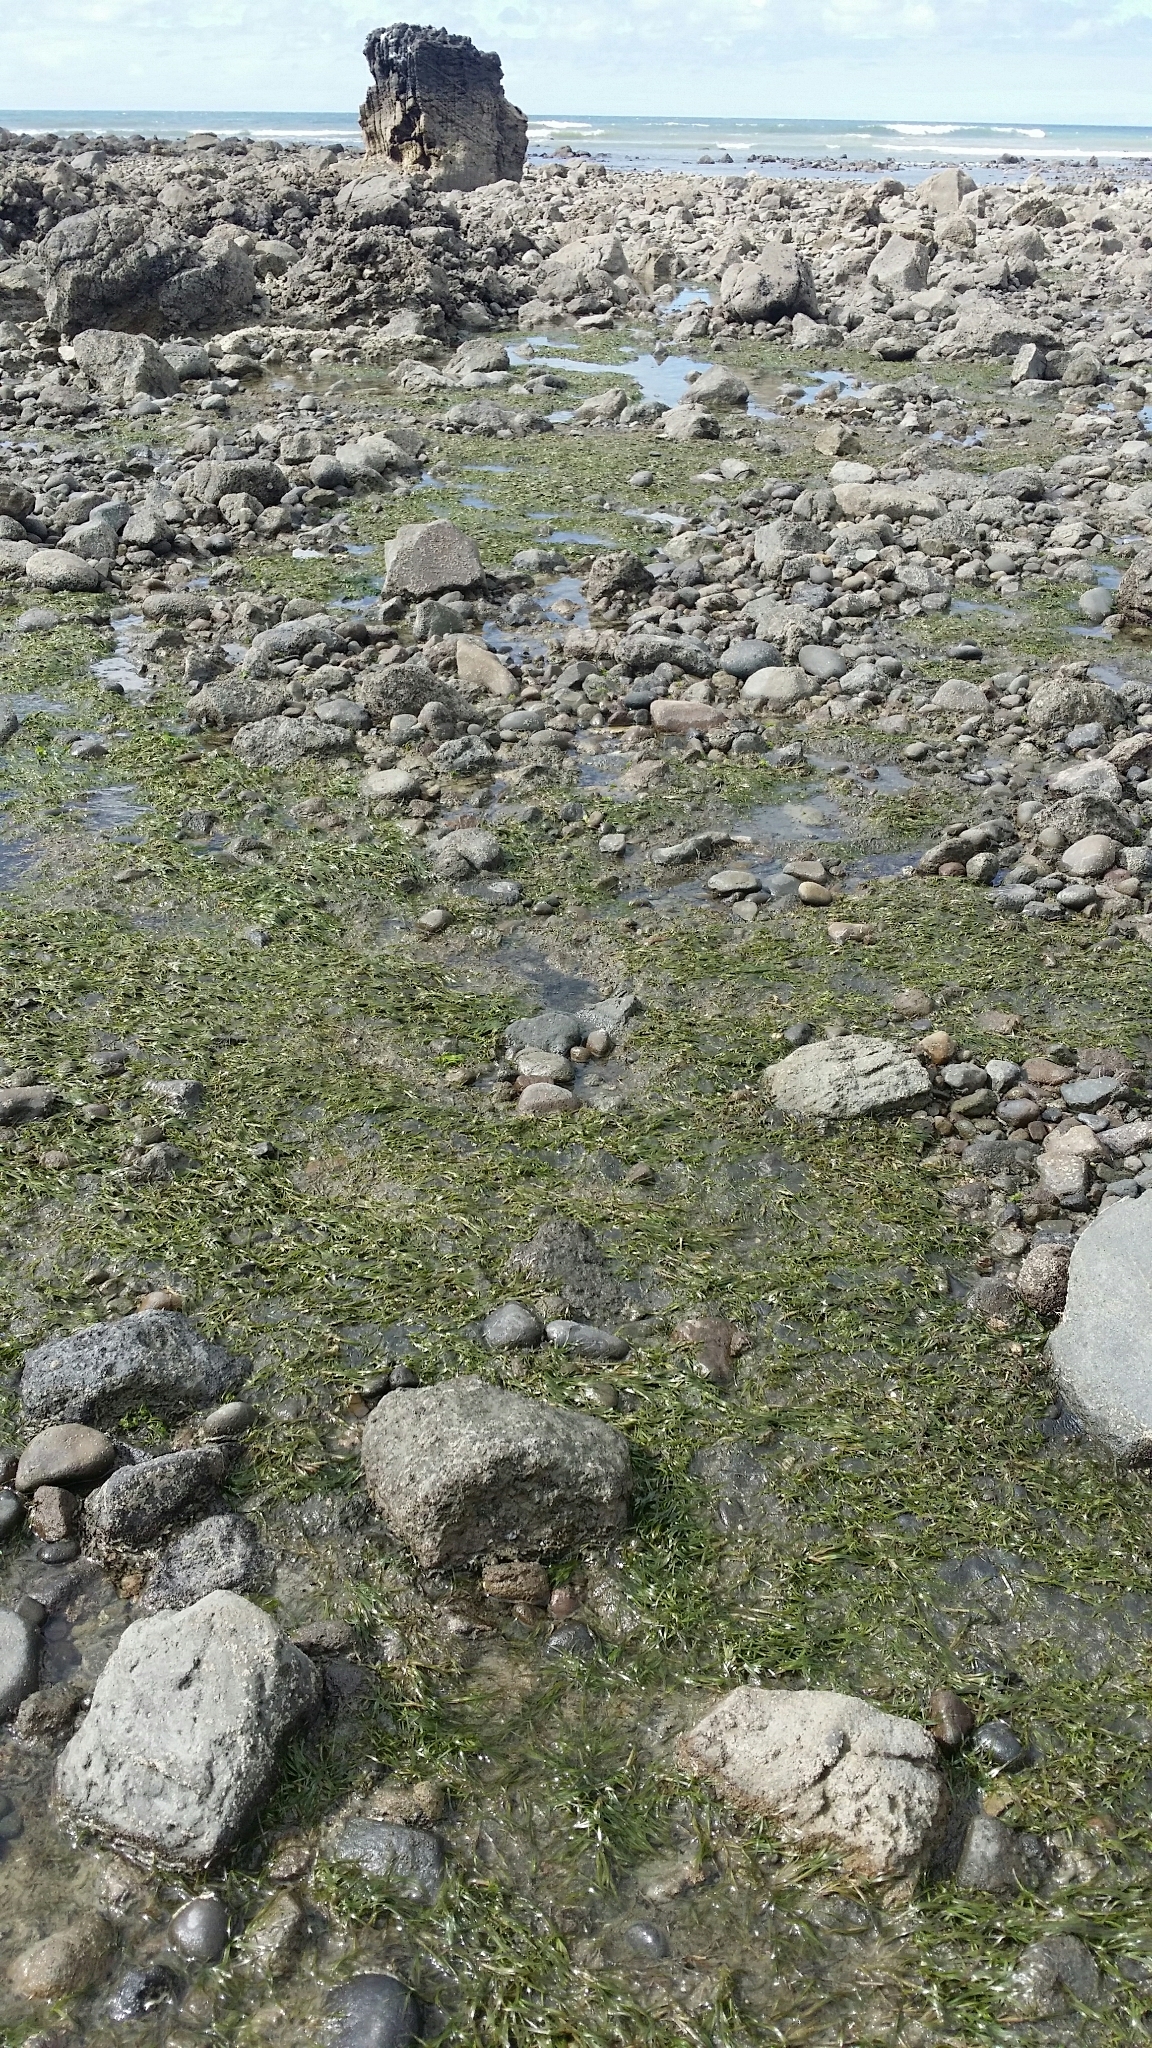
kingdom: Plantae
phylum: Tracheophyta
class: Liliopsida
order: Alismatales
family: Zosteraceae
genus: Zostera
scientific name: Zostera novazelandica
